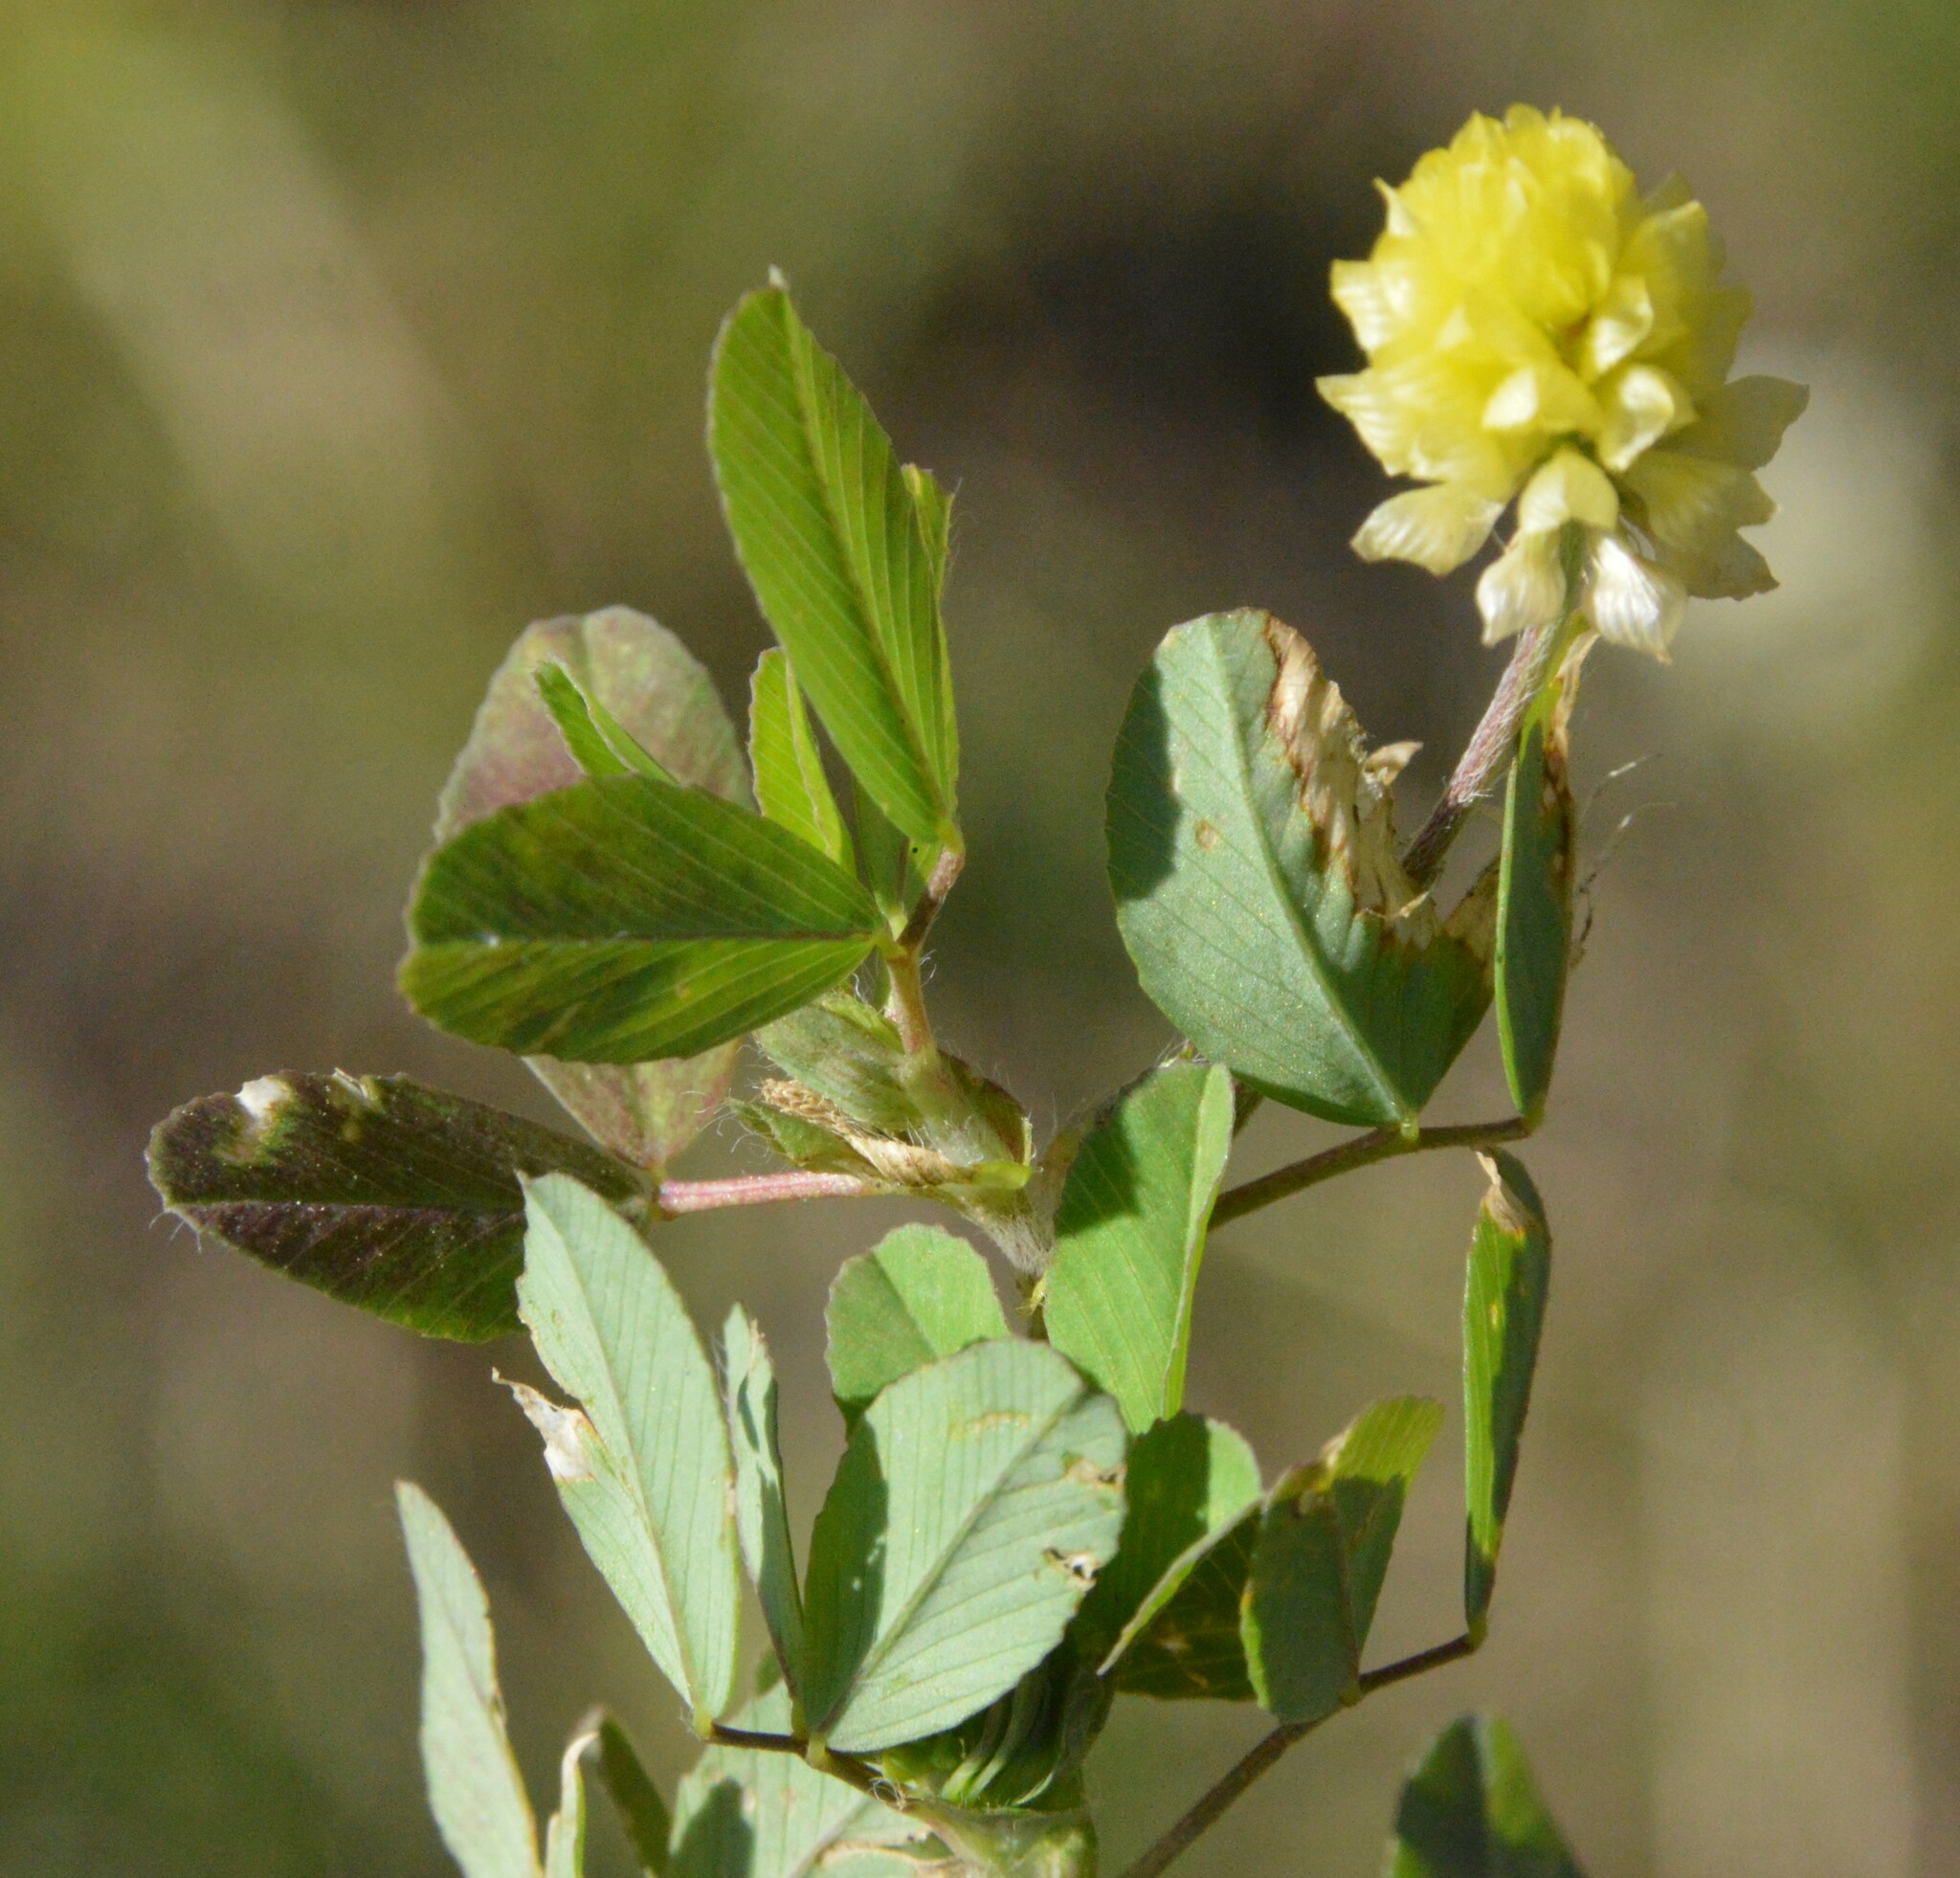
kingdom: Plantae
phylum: Tracheophyta
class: Magnoliopsida
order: Fabales
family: Fabaceae
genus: Trifolium
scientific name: Trifolium campestre
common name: Field clover
